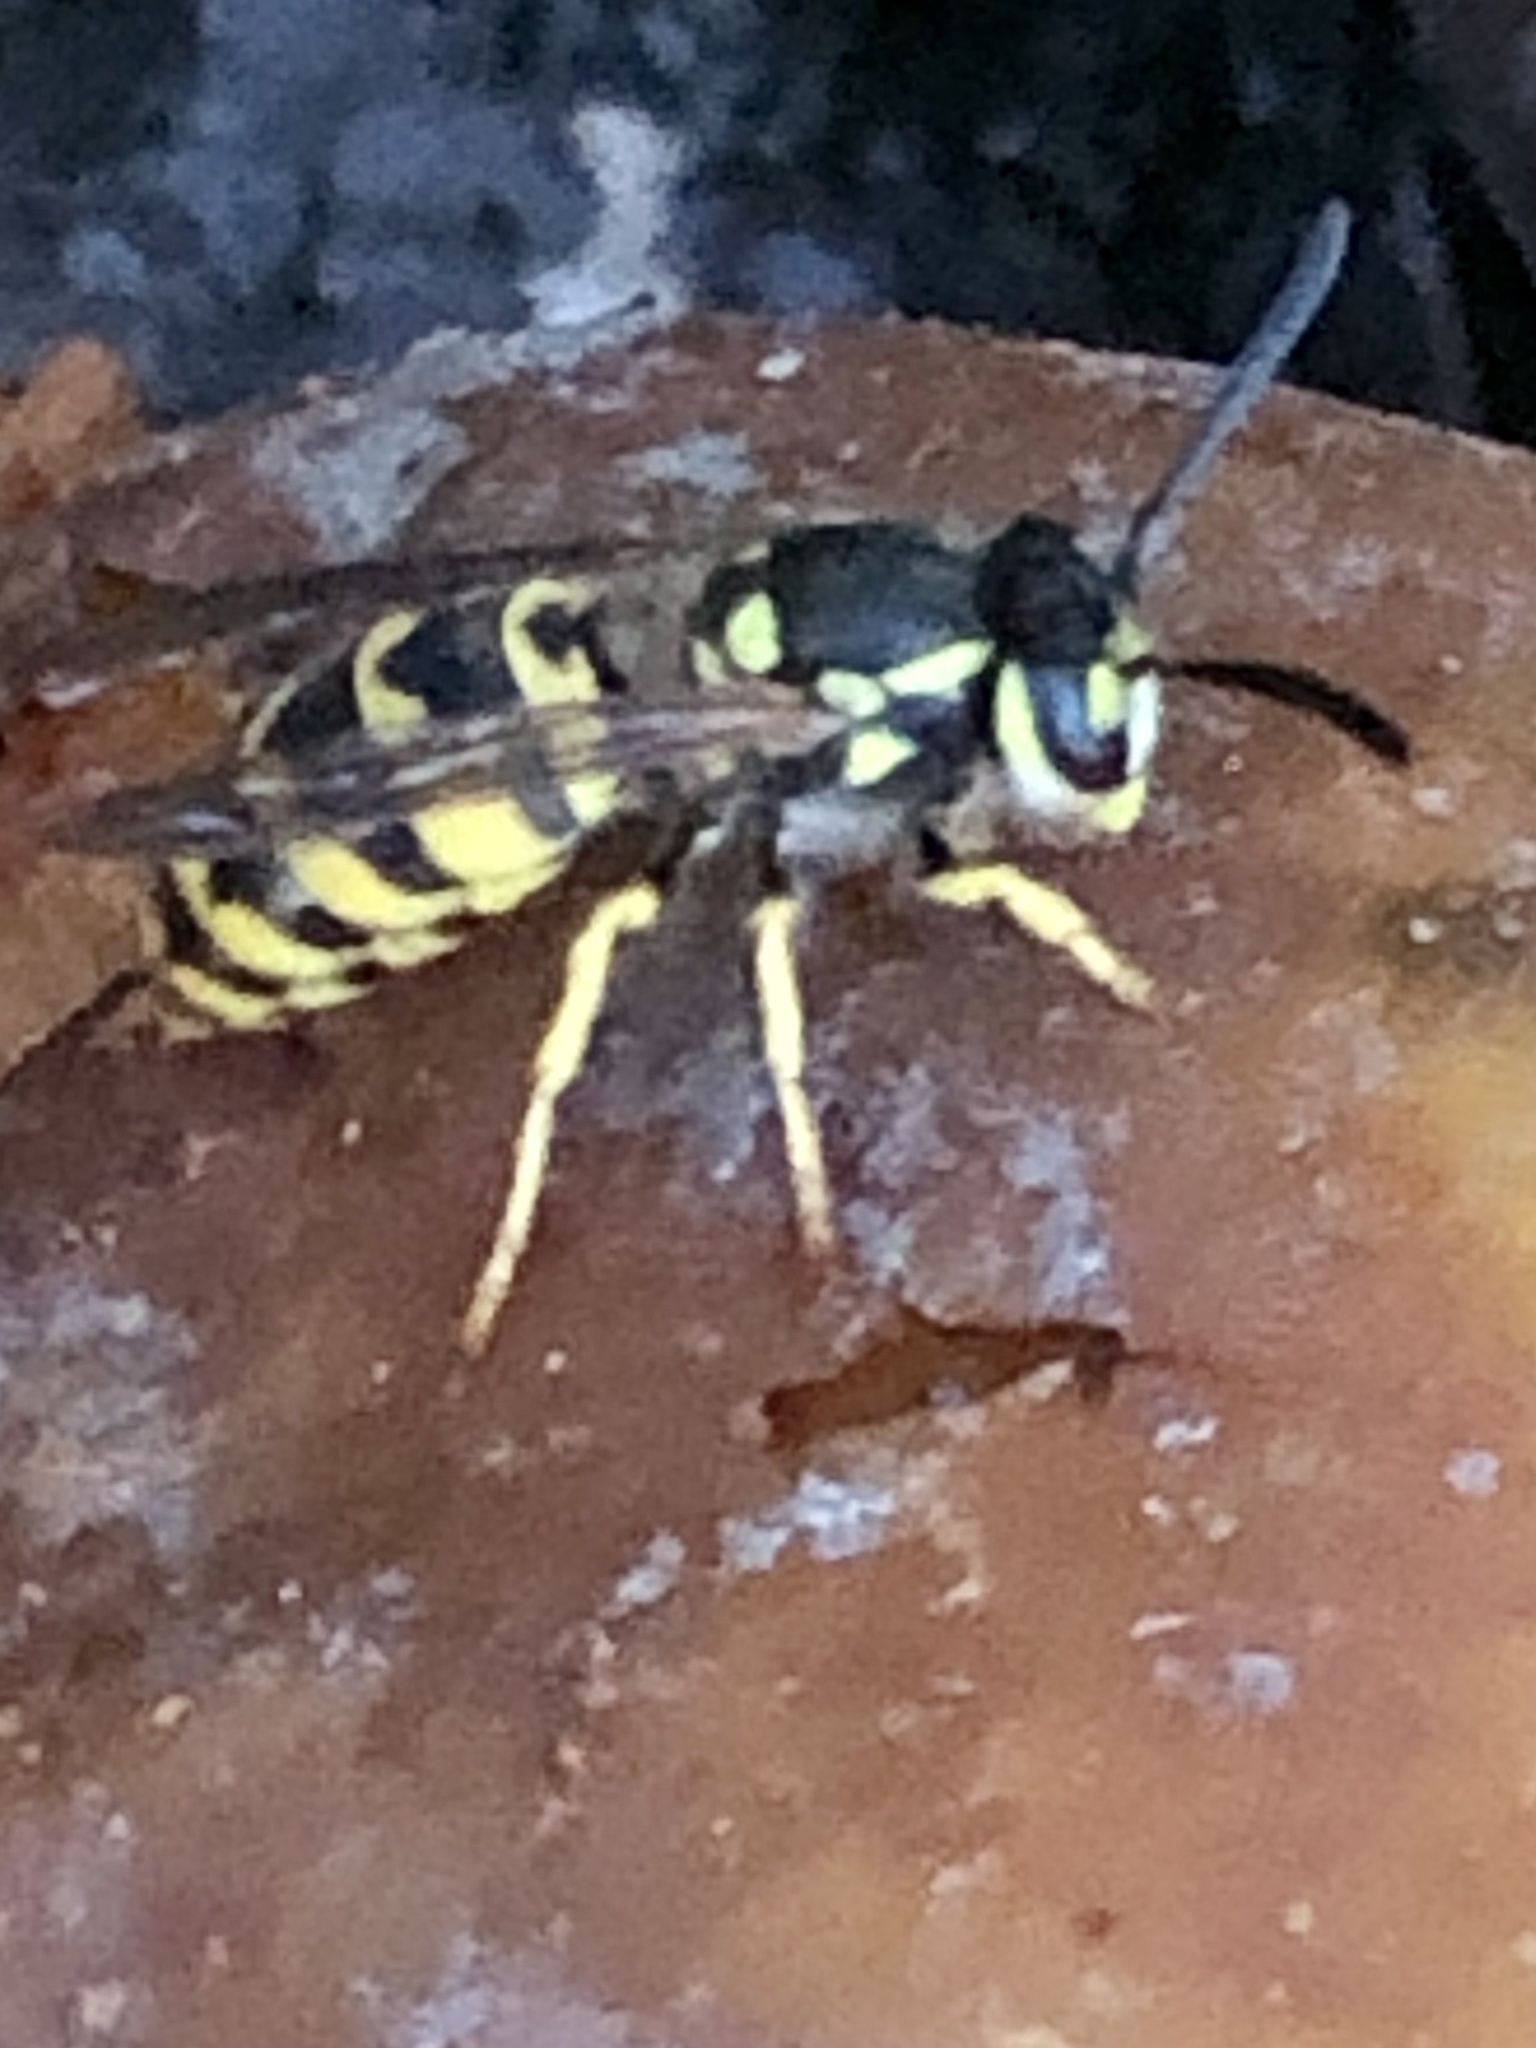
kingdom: Animalia
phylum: Arthropoda
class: Insecta
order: Hymenoptera
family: Vespidae
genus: Vespula
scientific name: Vespula germanica
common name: German wasp
